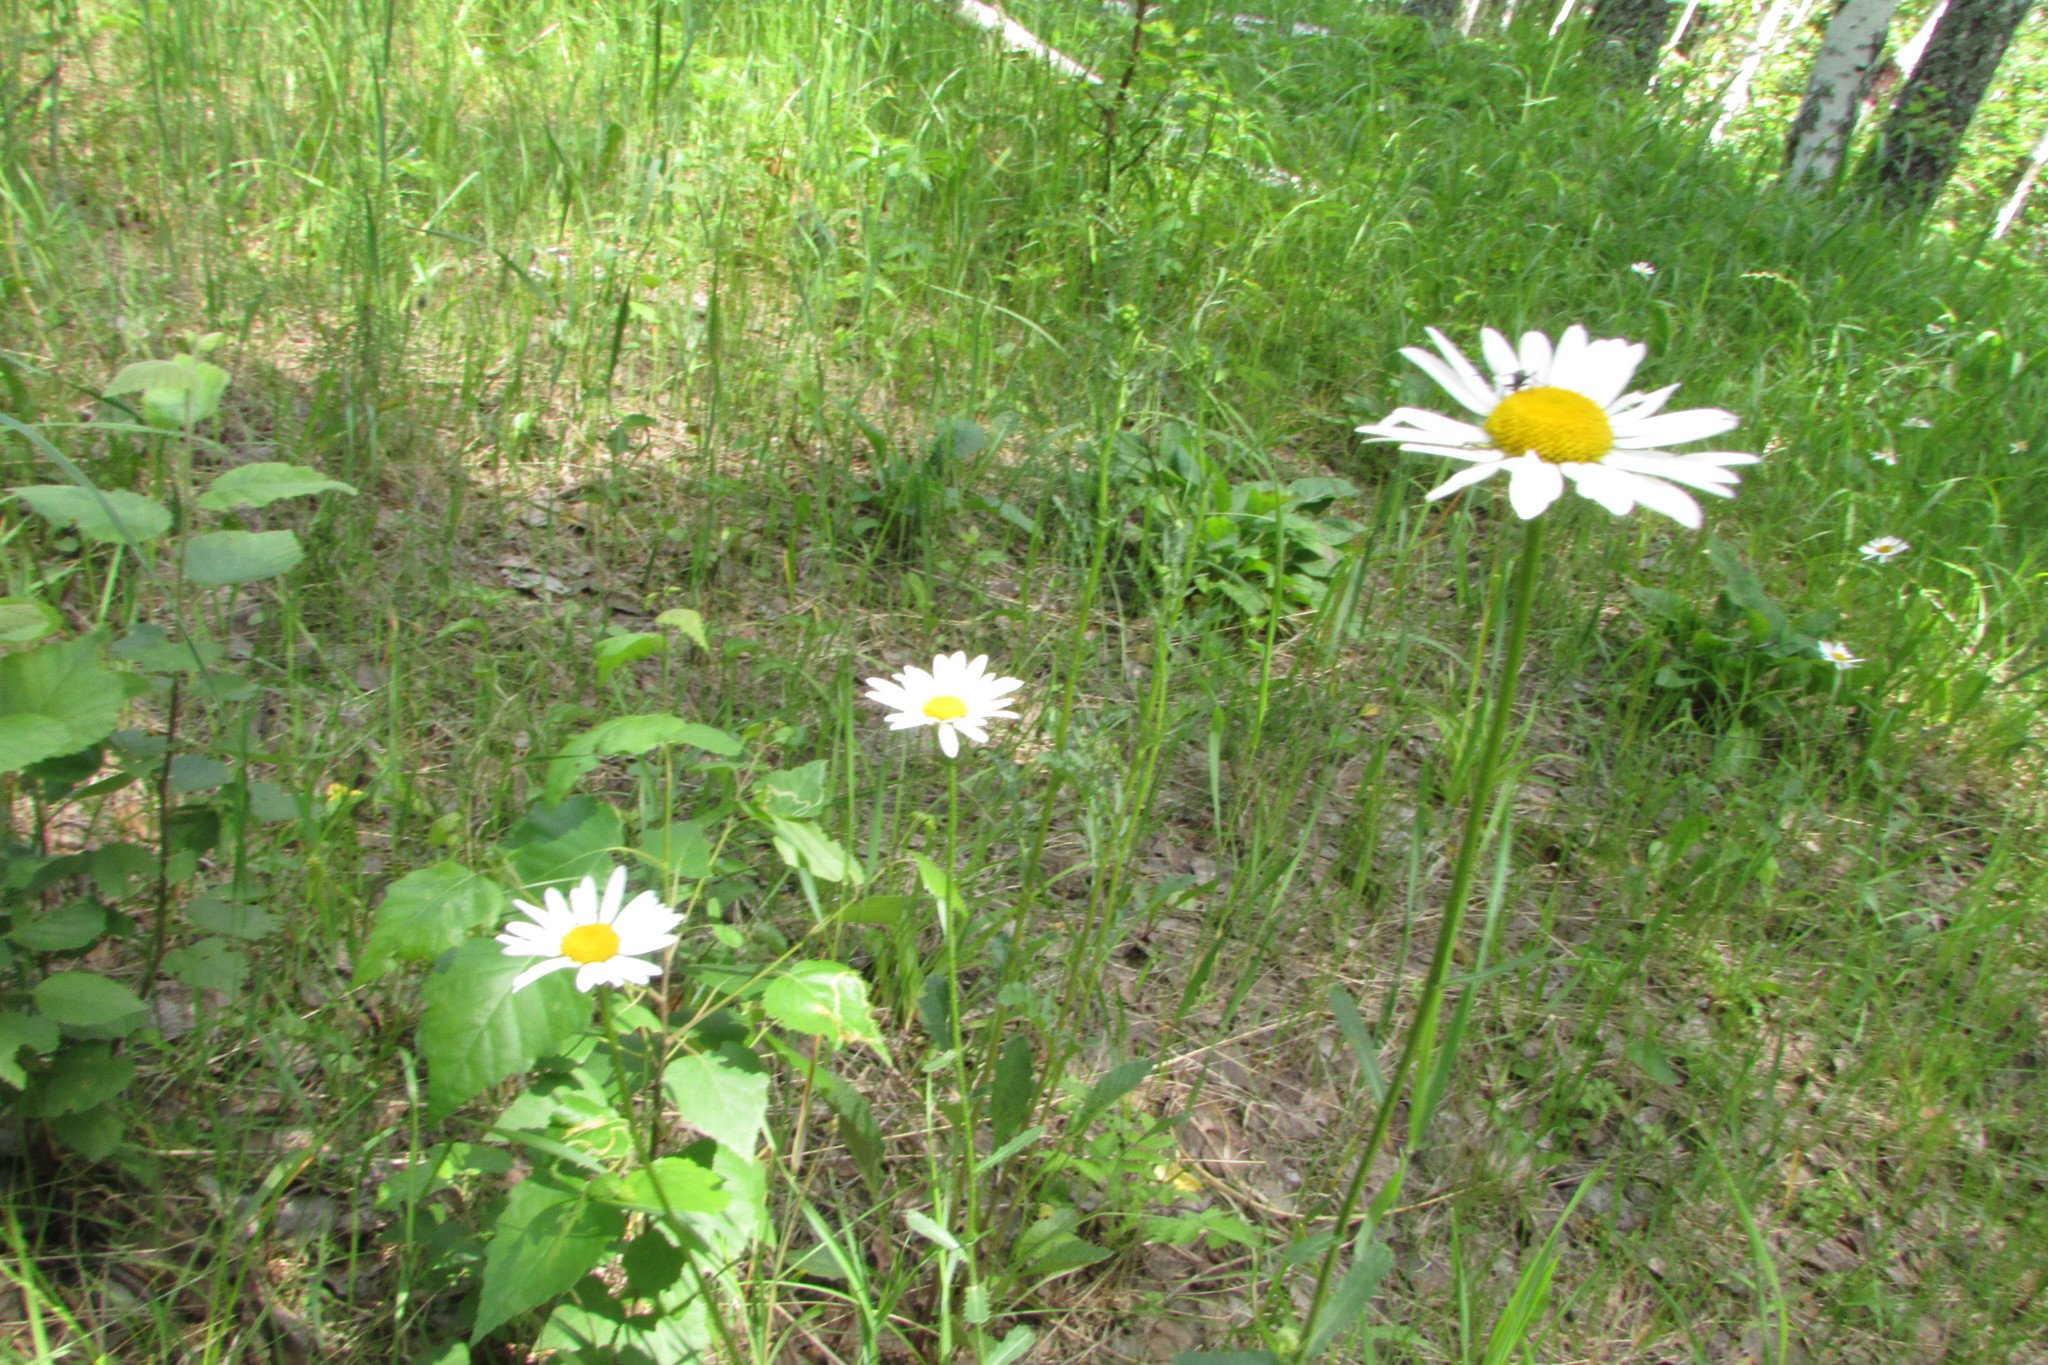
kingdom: Plantae
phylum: Tracheophyta
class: Magnoliopsida
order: Asterales
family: Asteraceae
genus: Leucanthemum
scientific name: Leucanthemum vulgare
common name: Oxeye daisy
